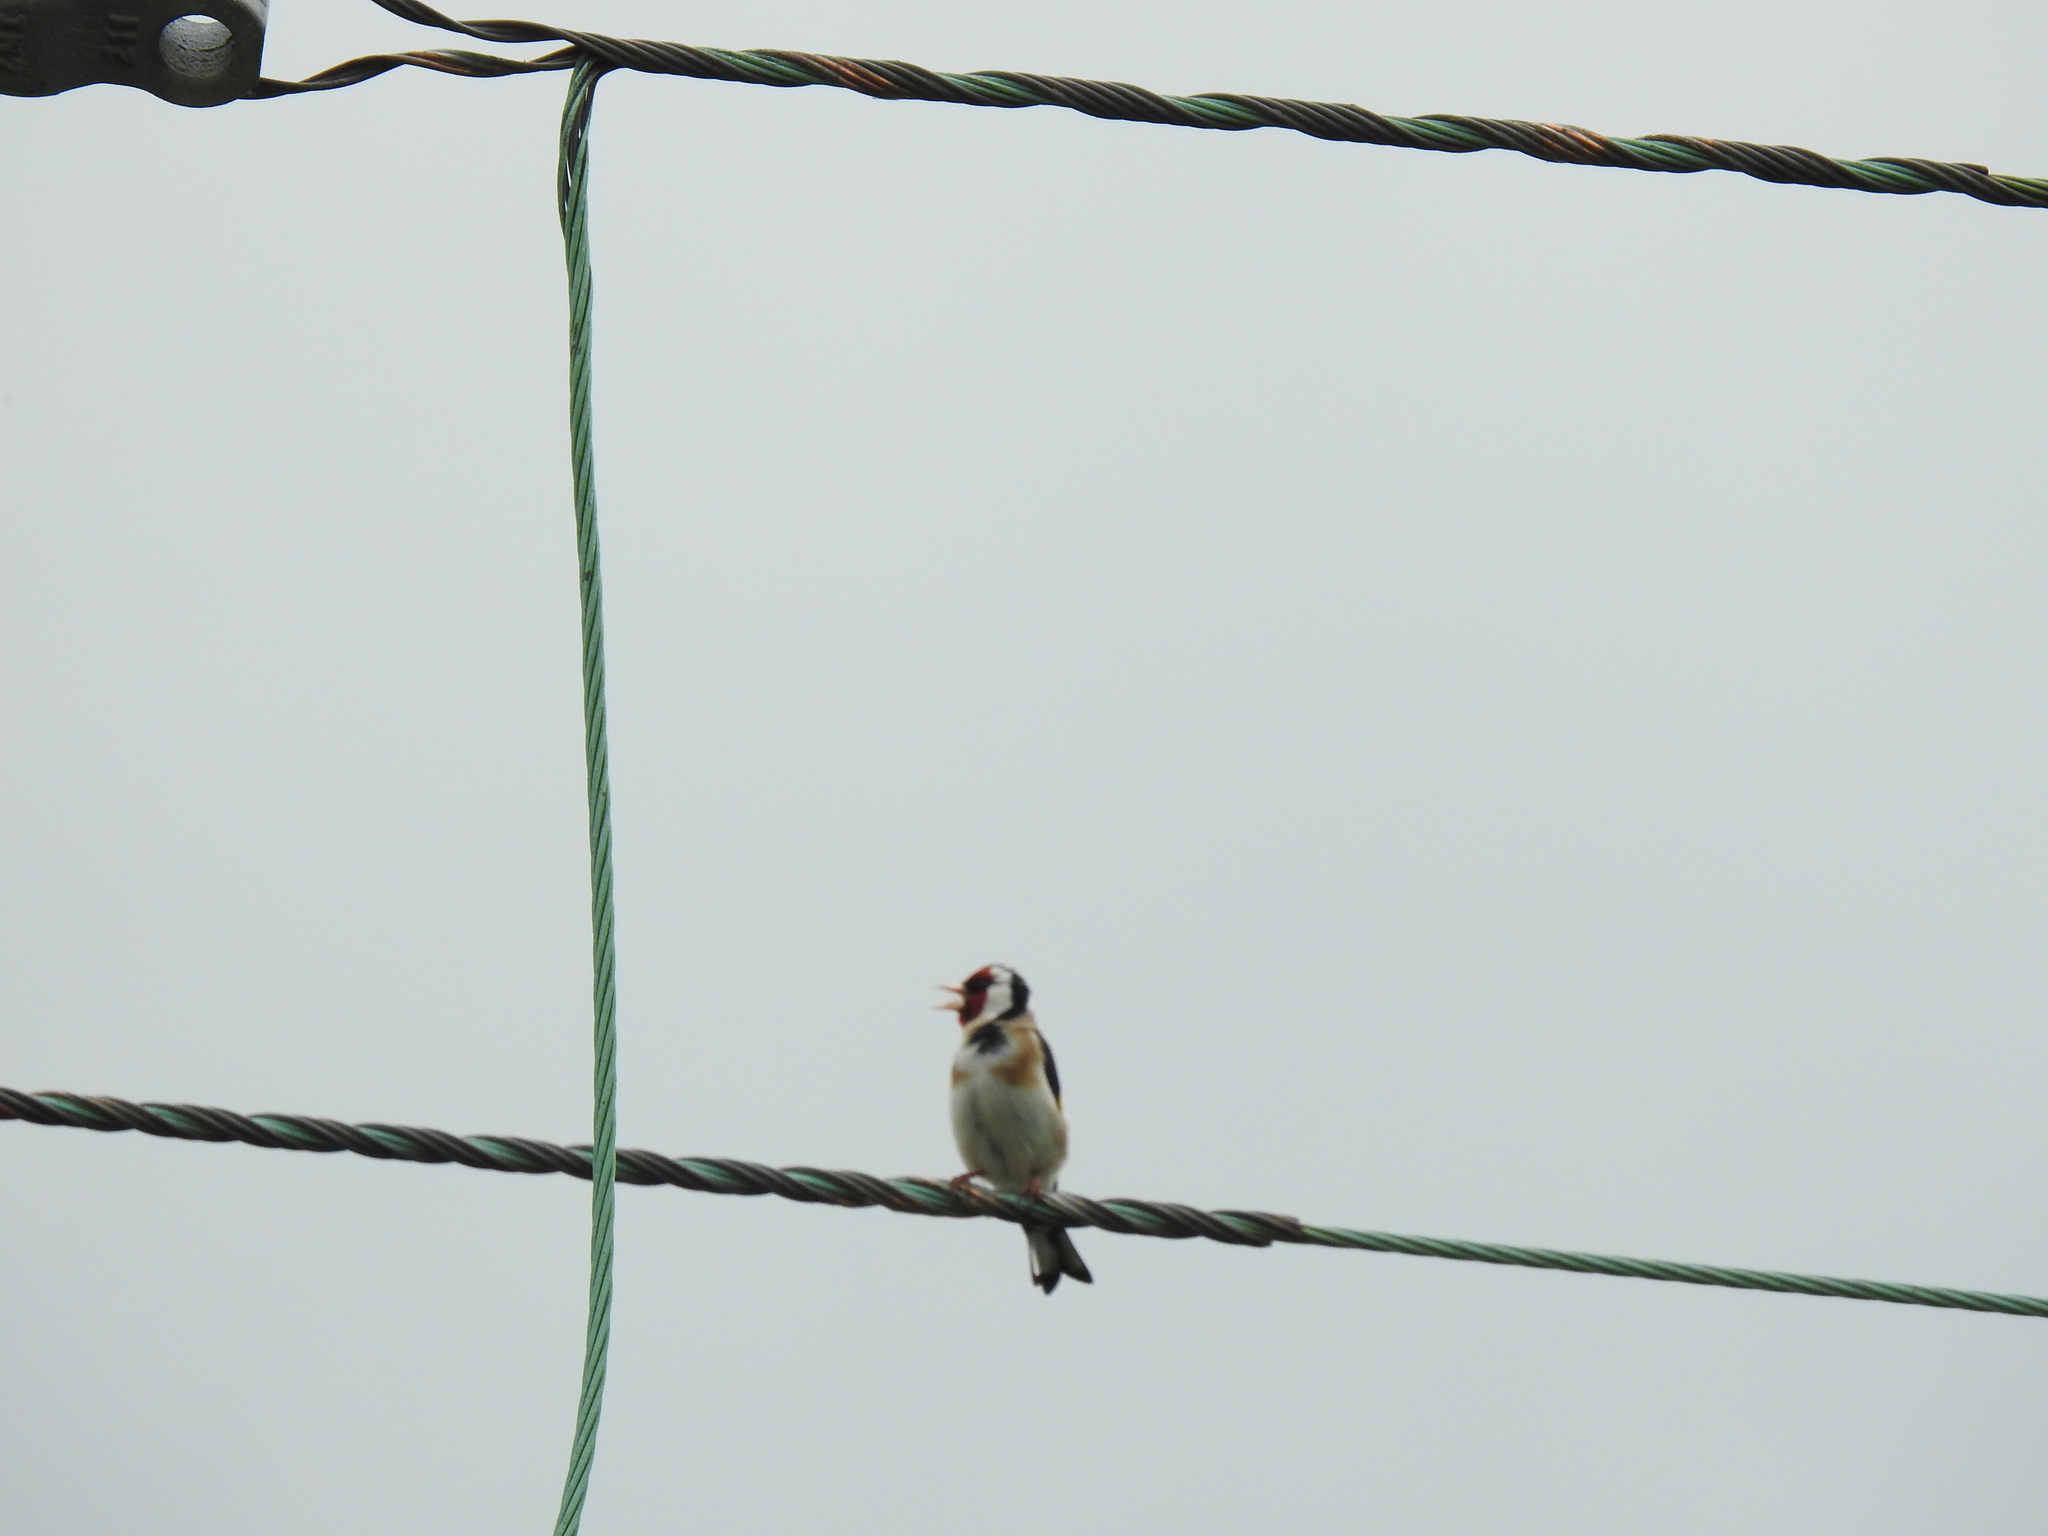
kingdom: Animalia
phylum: Chordata
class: Aves
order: Passeriformes
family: Fringillidae
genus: Carduelis
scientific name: Carduelis carduelis
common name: European goldfinch
